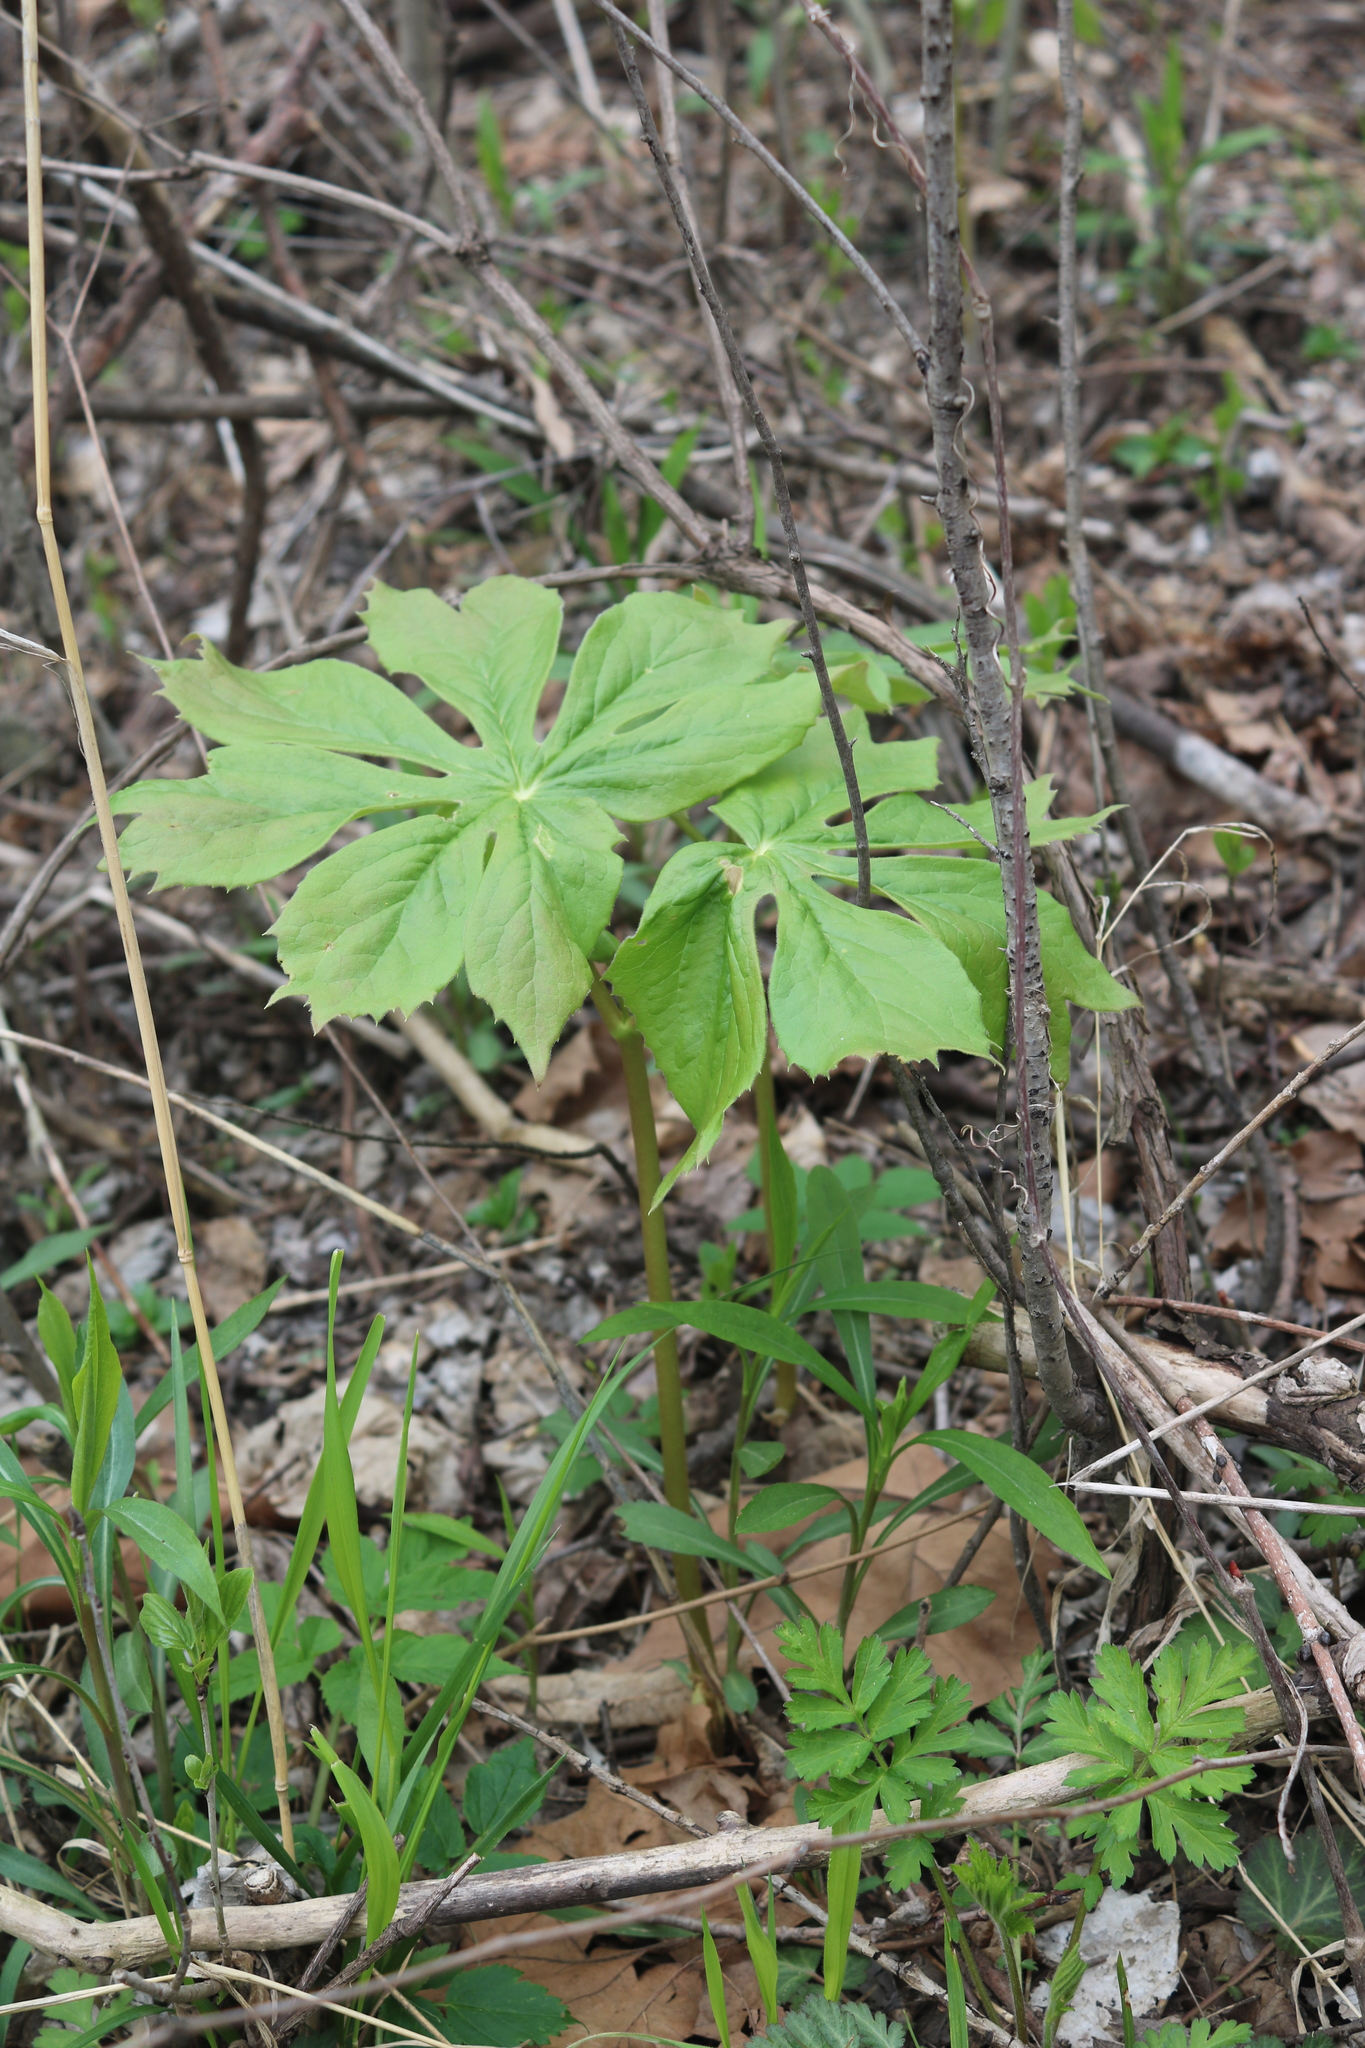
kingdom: Plantae
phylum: Tracheophyta
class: Magnoliopsida
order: Ranunculales
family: Berberidaceae
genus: Podophyllum
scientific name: Podophyllum peltatum
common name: Wild mandrake
